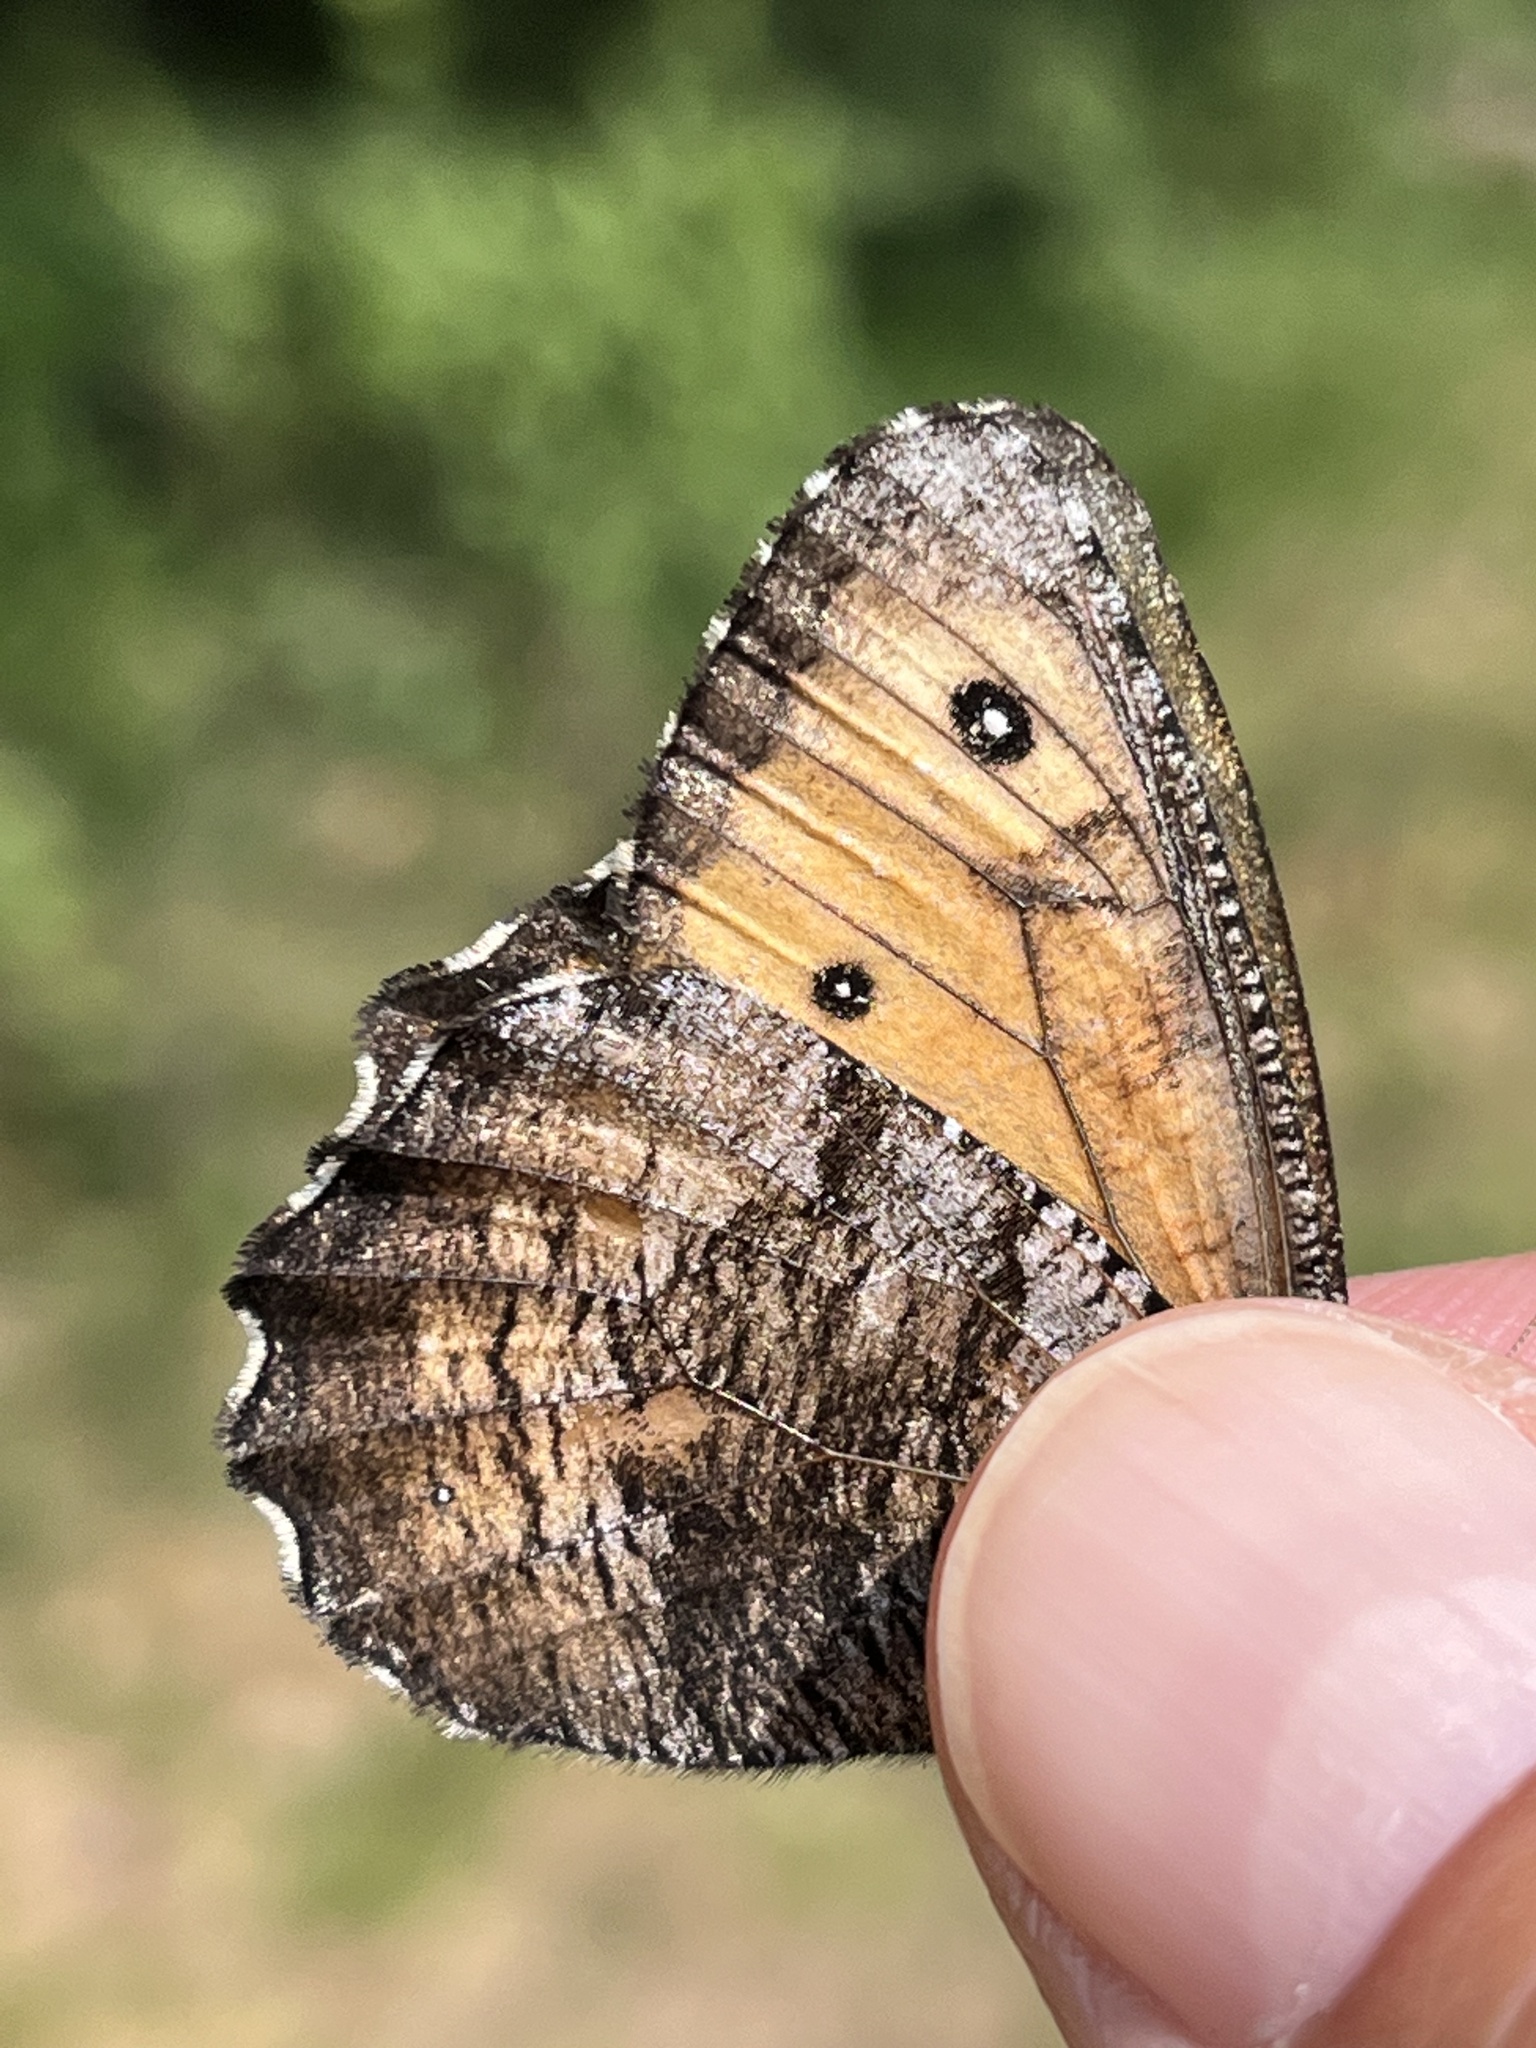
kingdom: Animalia
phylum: Arthropoda
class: Insecta
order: Lepidoptera
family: Nymphalidae
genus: Oeneis
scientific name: Oeneis macounii
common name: Macoun's arctic
